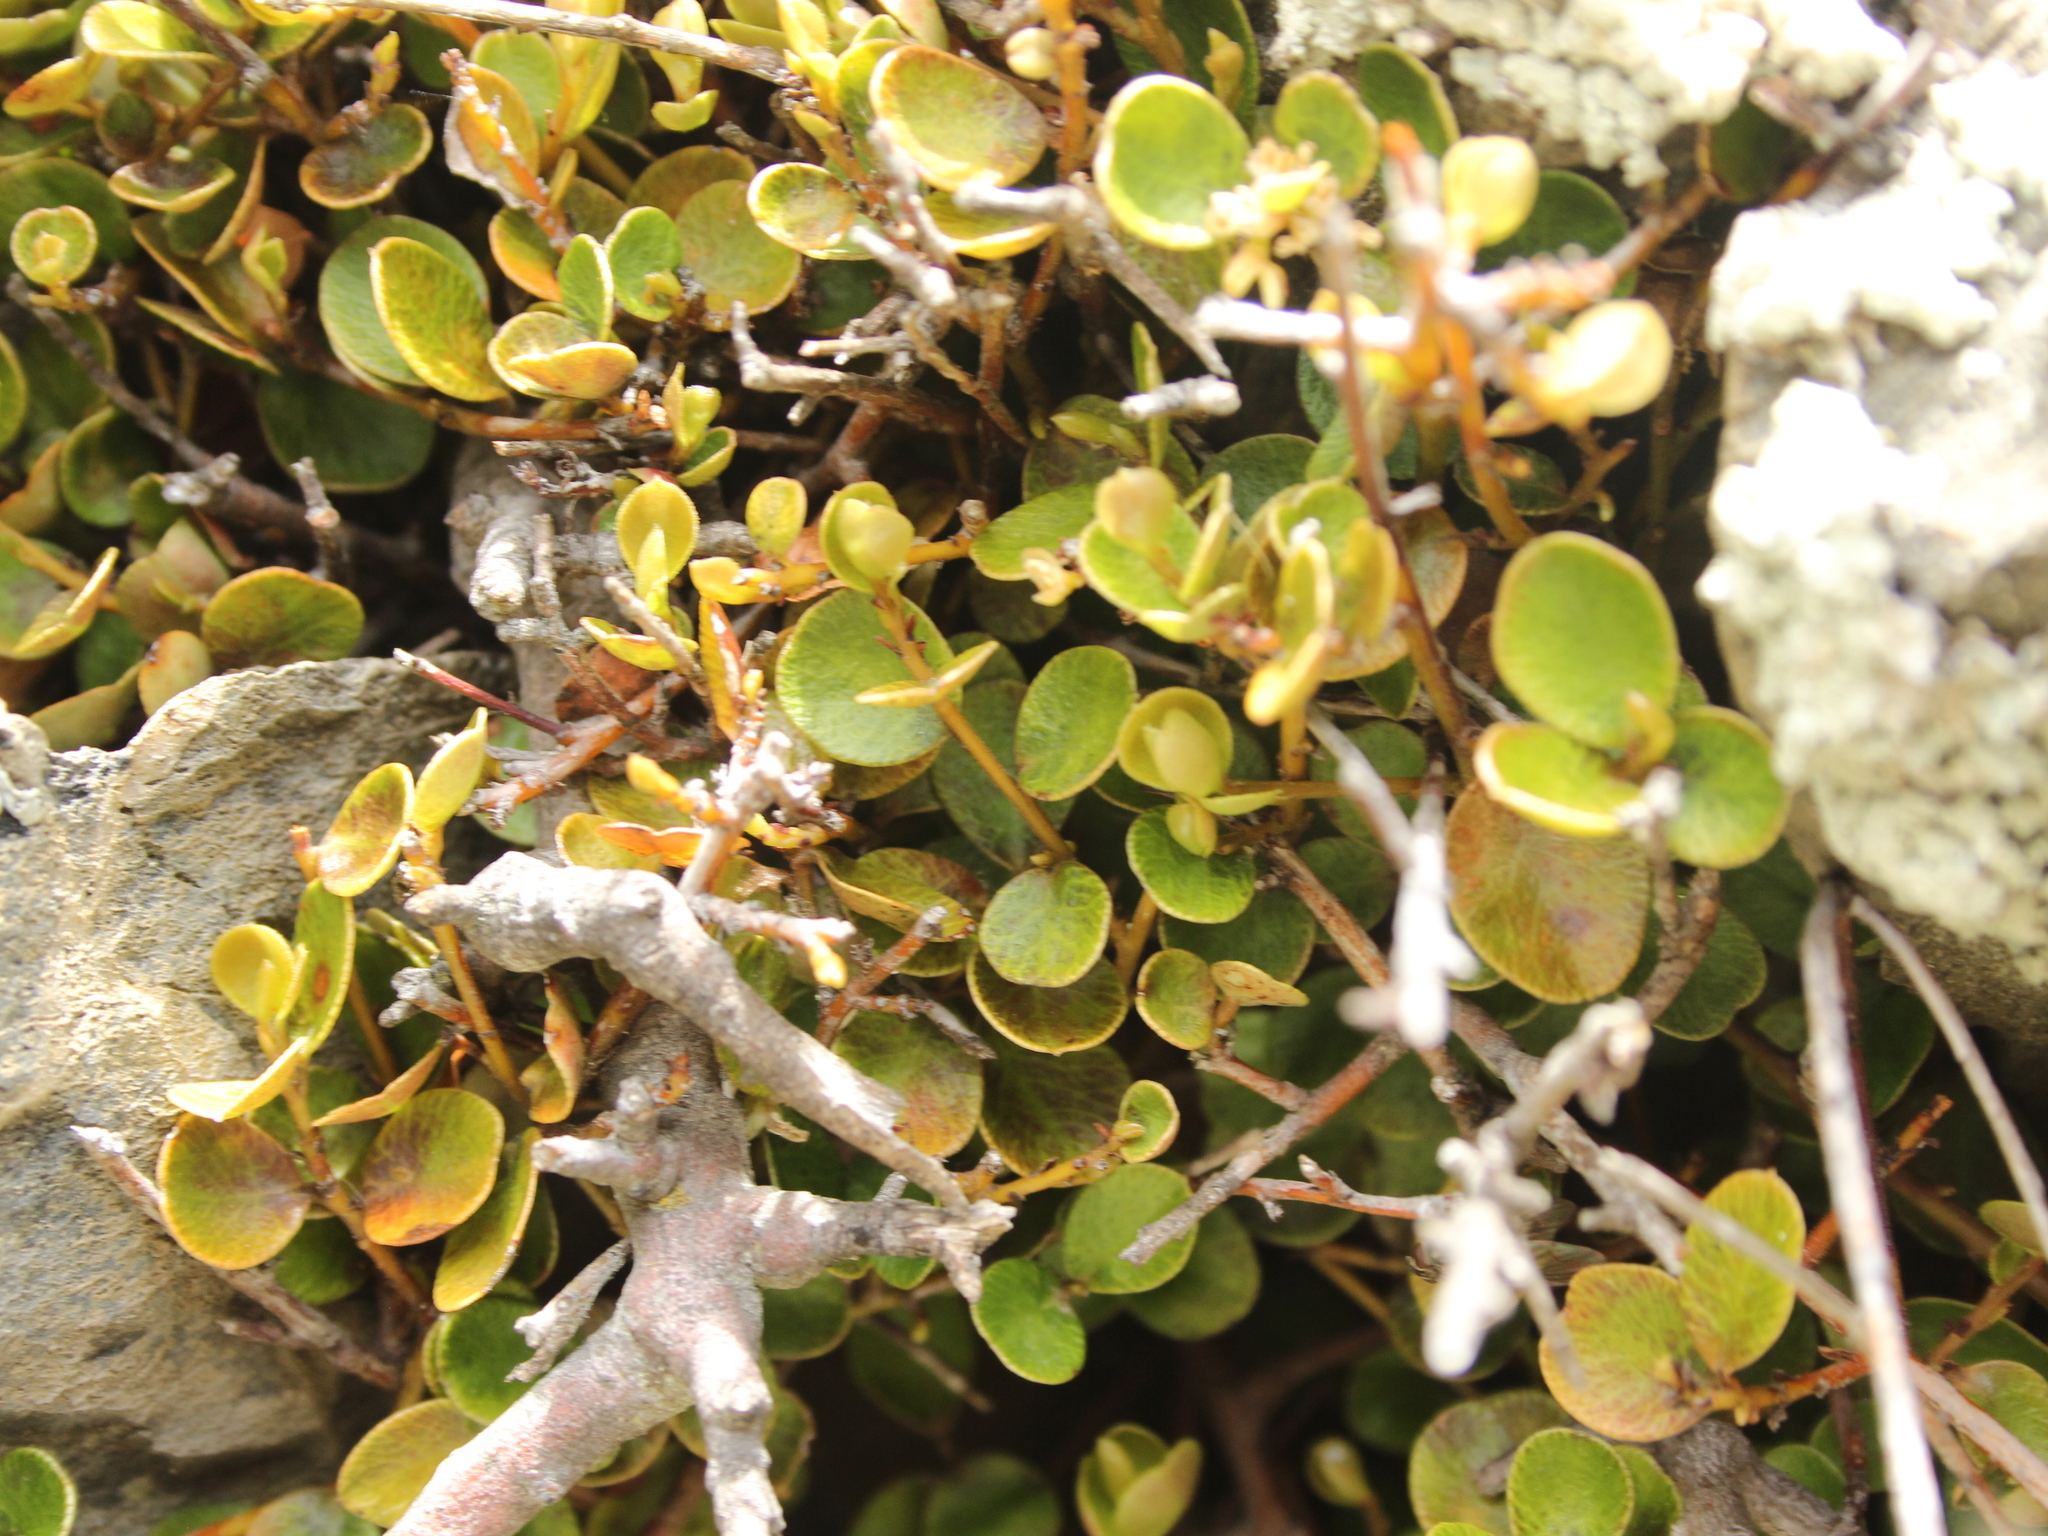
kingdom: Plantae
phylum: Tracheophyta
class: Magnoliopsida
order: Ericales
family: Primulaceae
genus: Myrsine
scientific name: Myrsine nummularia
